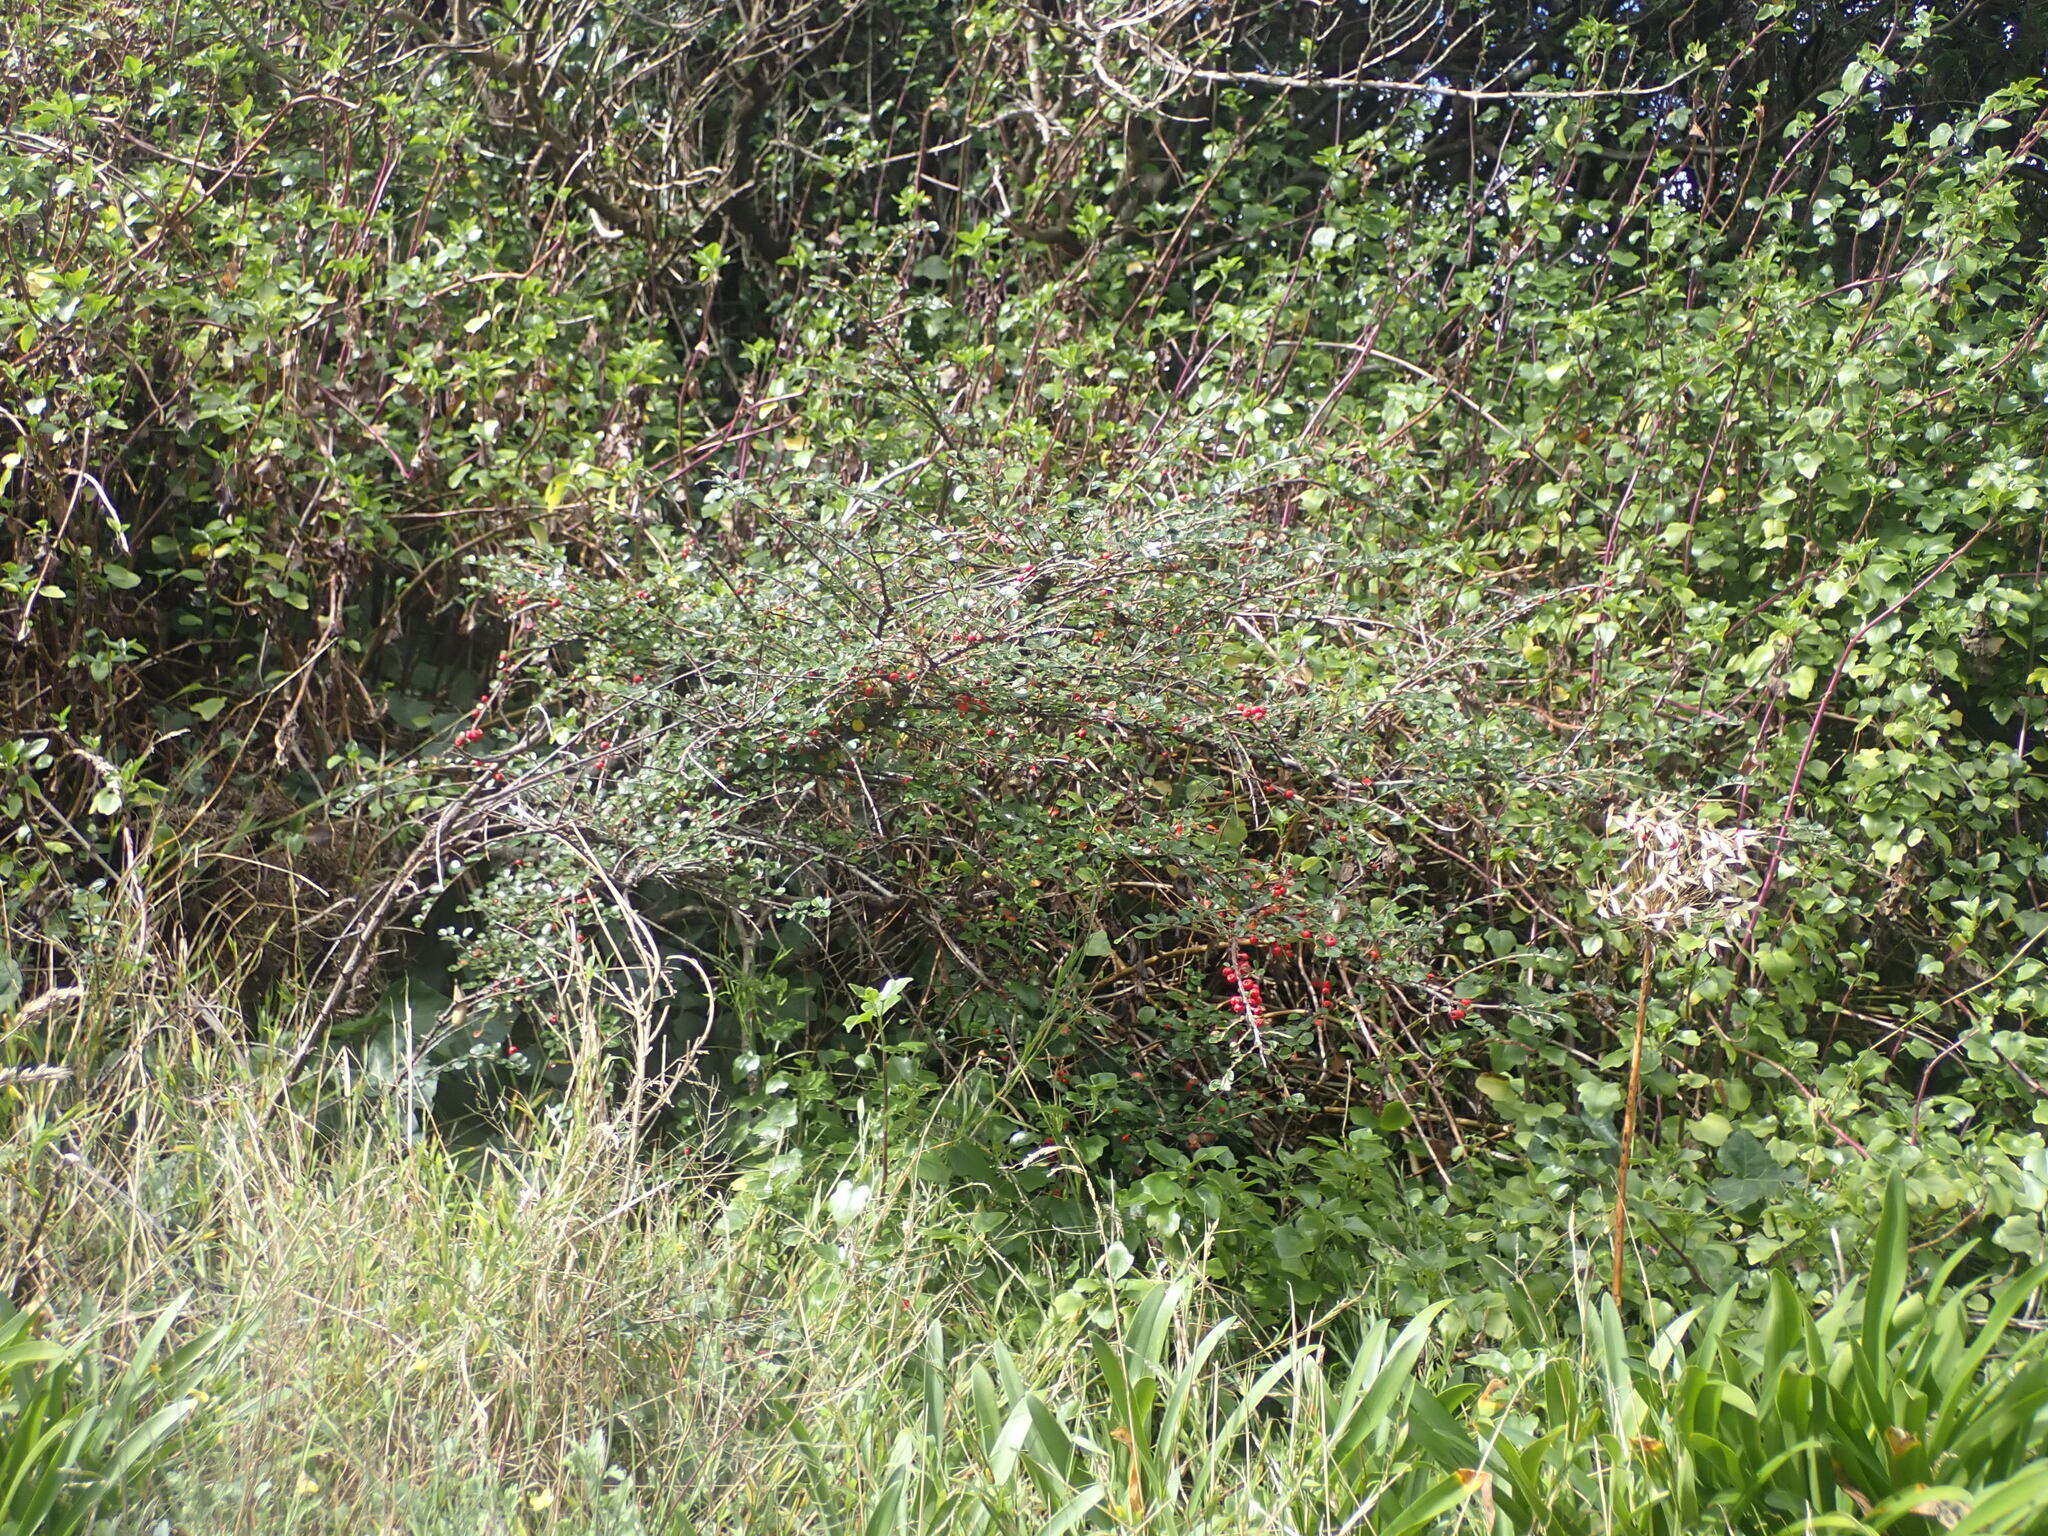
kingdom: Plantae
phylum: Tracheophyta
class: Magnoliopsida
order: Rosales
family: Rosaceae
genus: Cotoneaster
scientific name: Cotoneaster hjelmqvistii
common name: Hjelmqvist's cotoneaster
